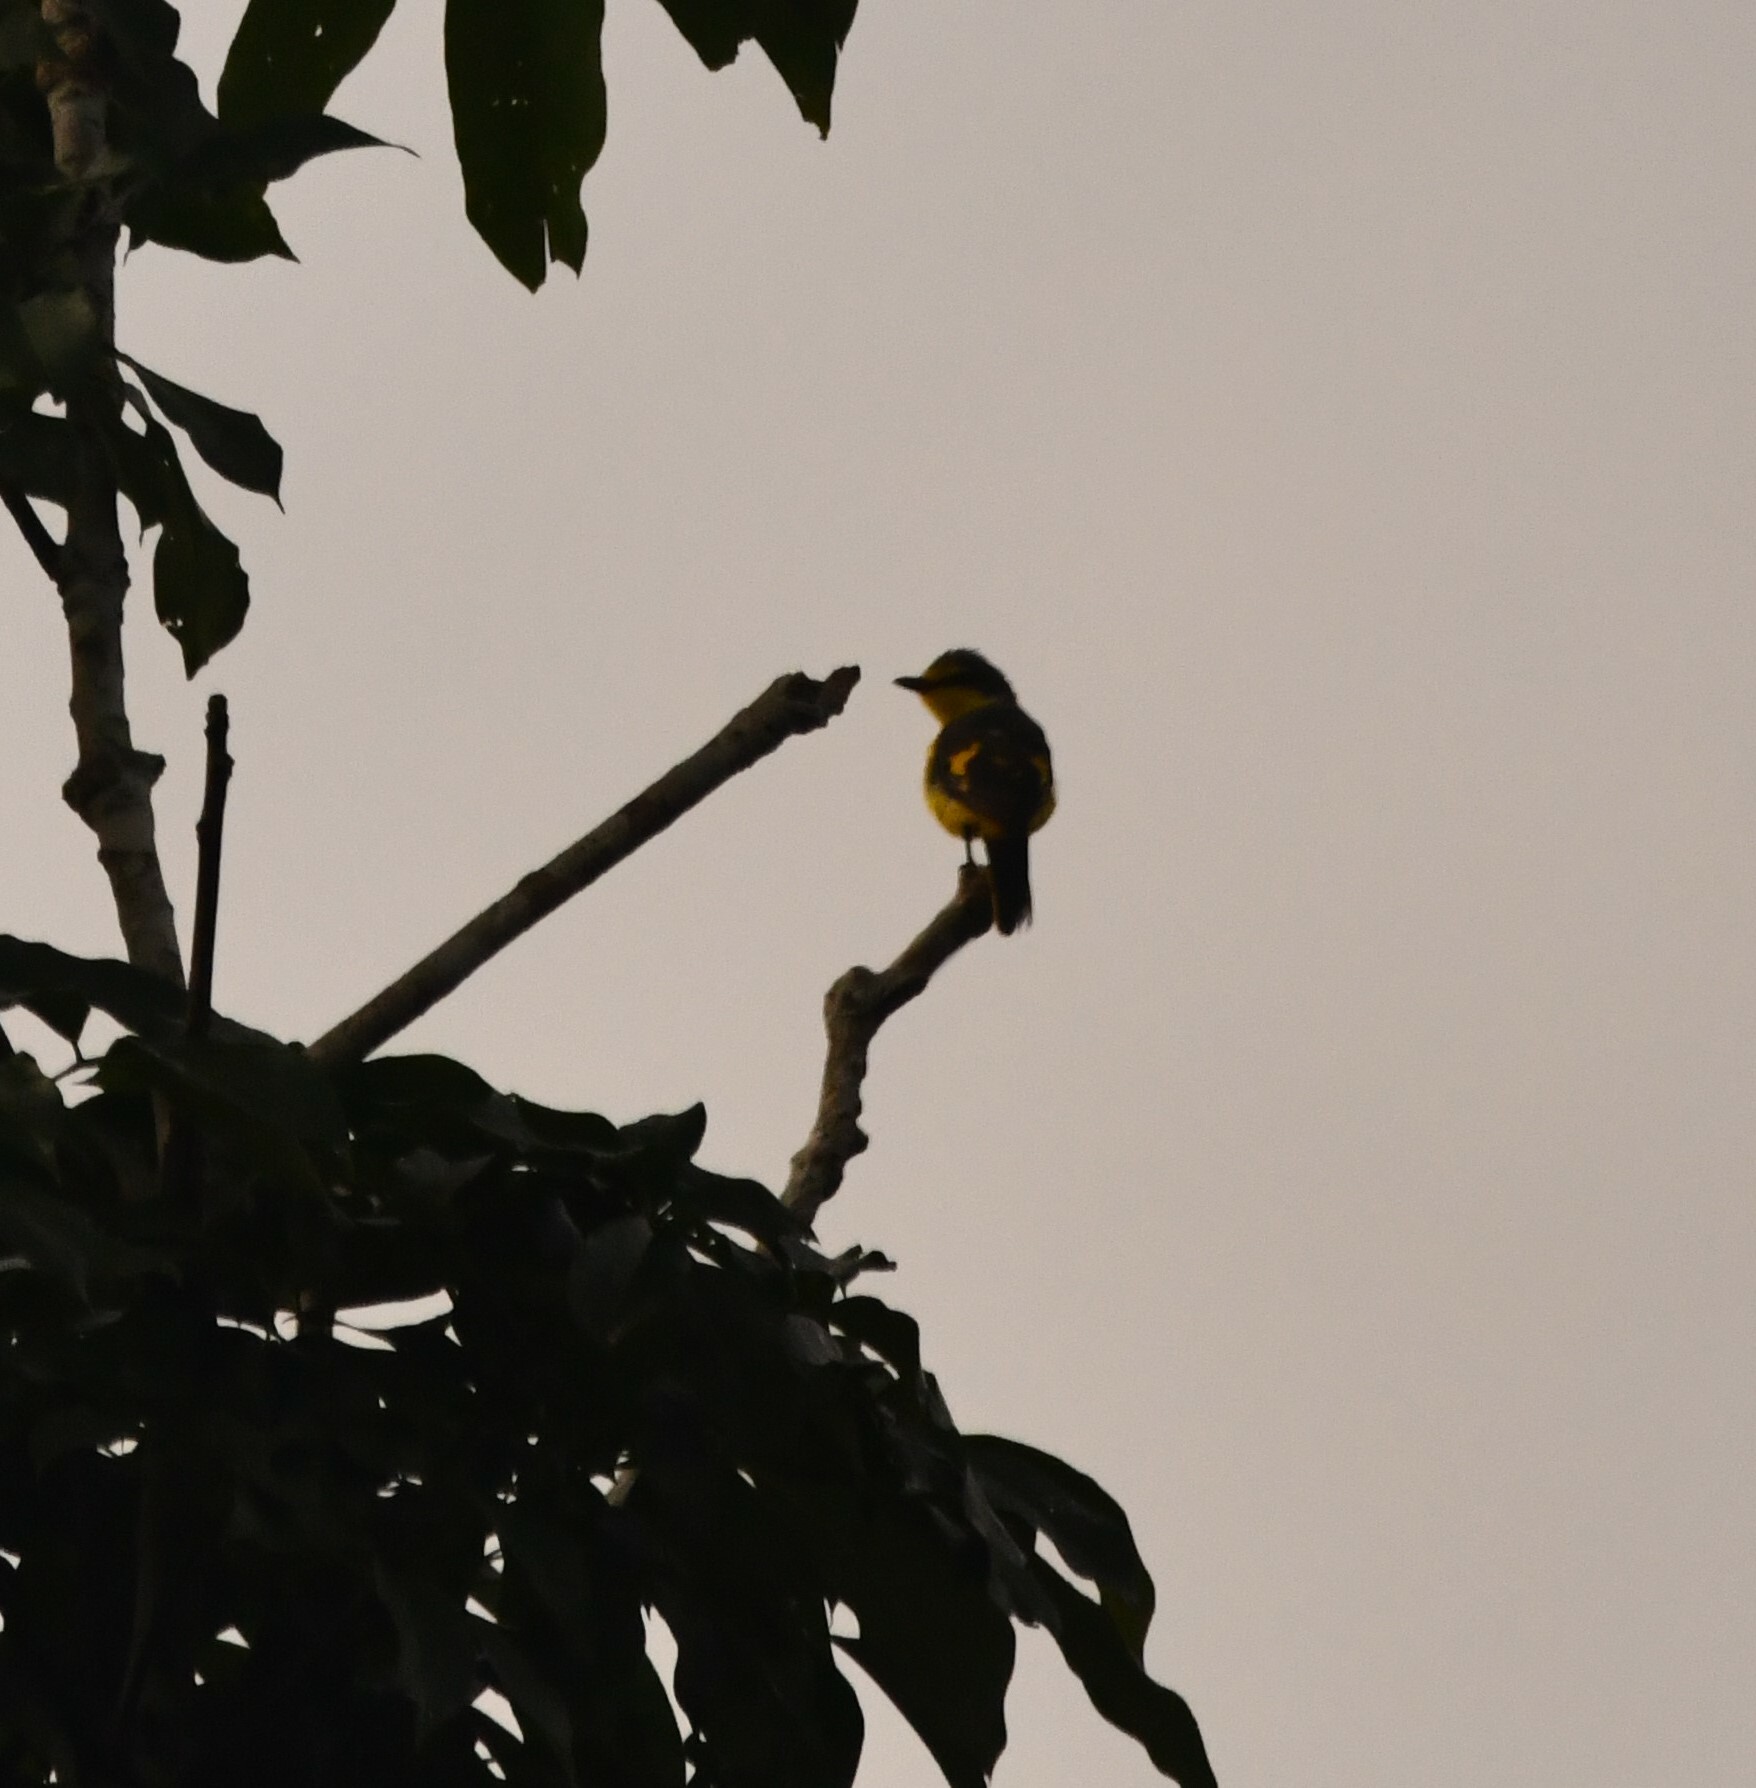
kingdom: Animalia
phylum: Chordata
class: Aves
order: Passeriformes
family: Campephagidae
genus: Pericrocotus
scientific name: Pericrocotus flammeus
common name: Orange minivet
